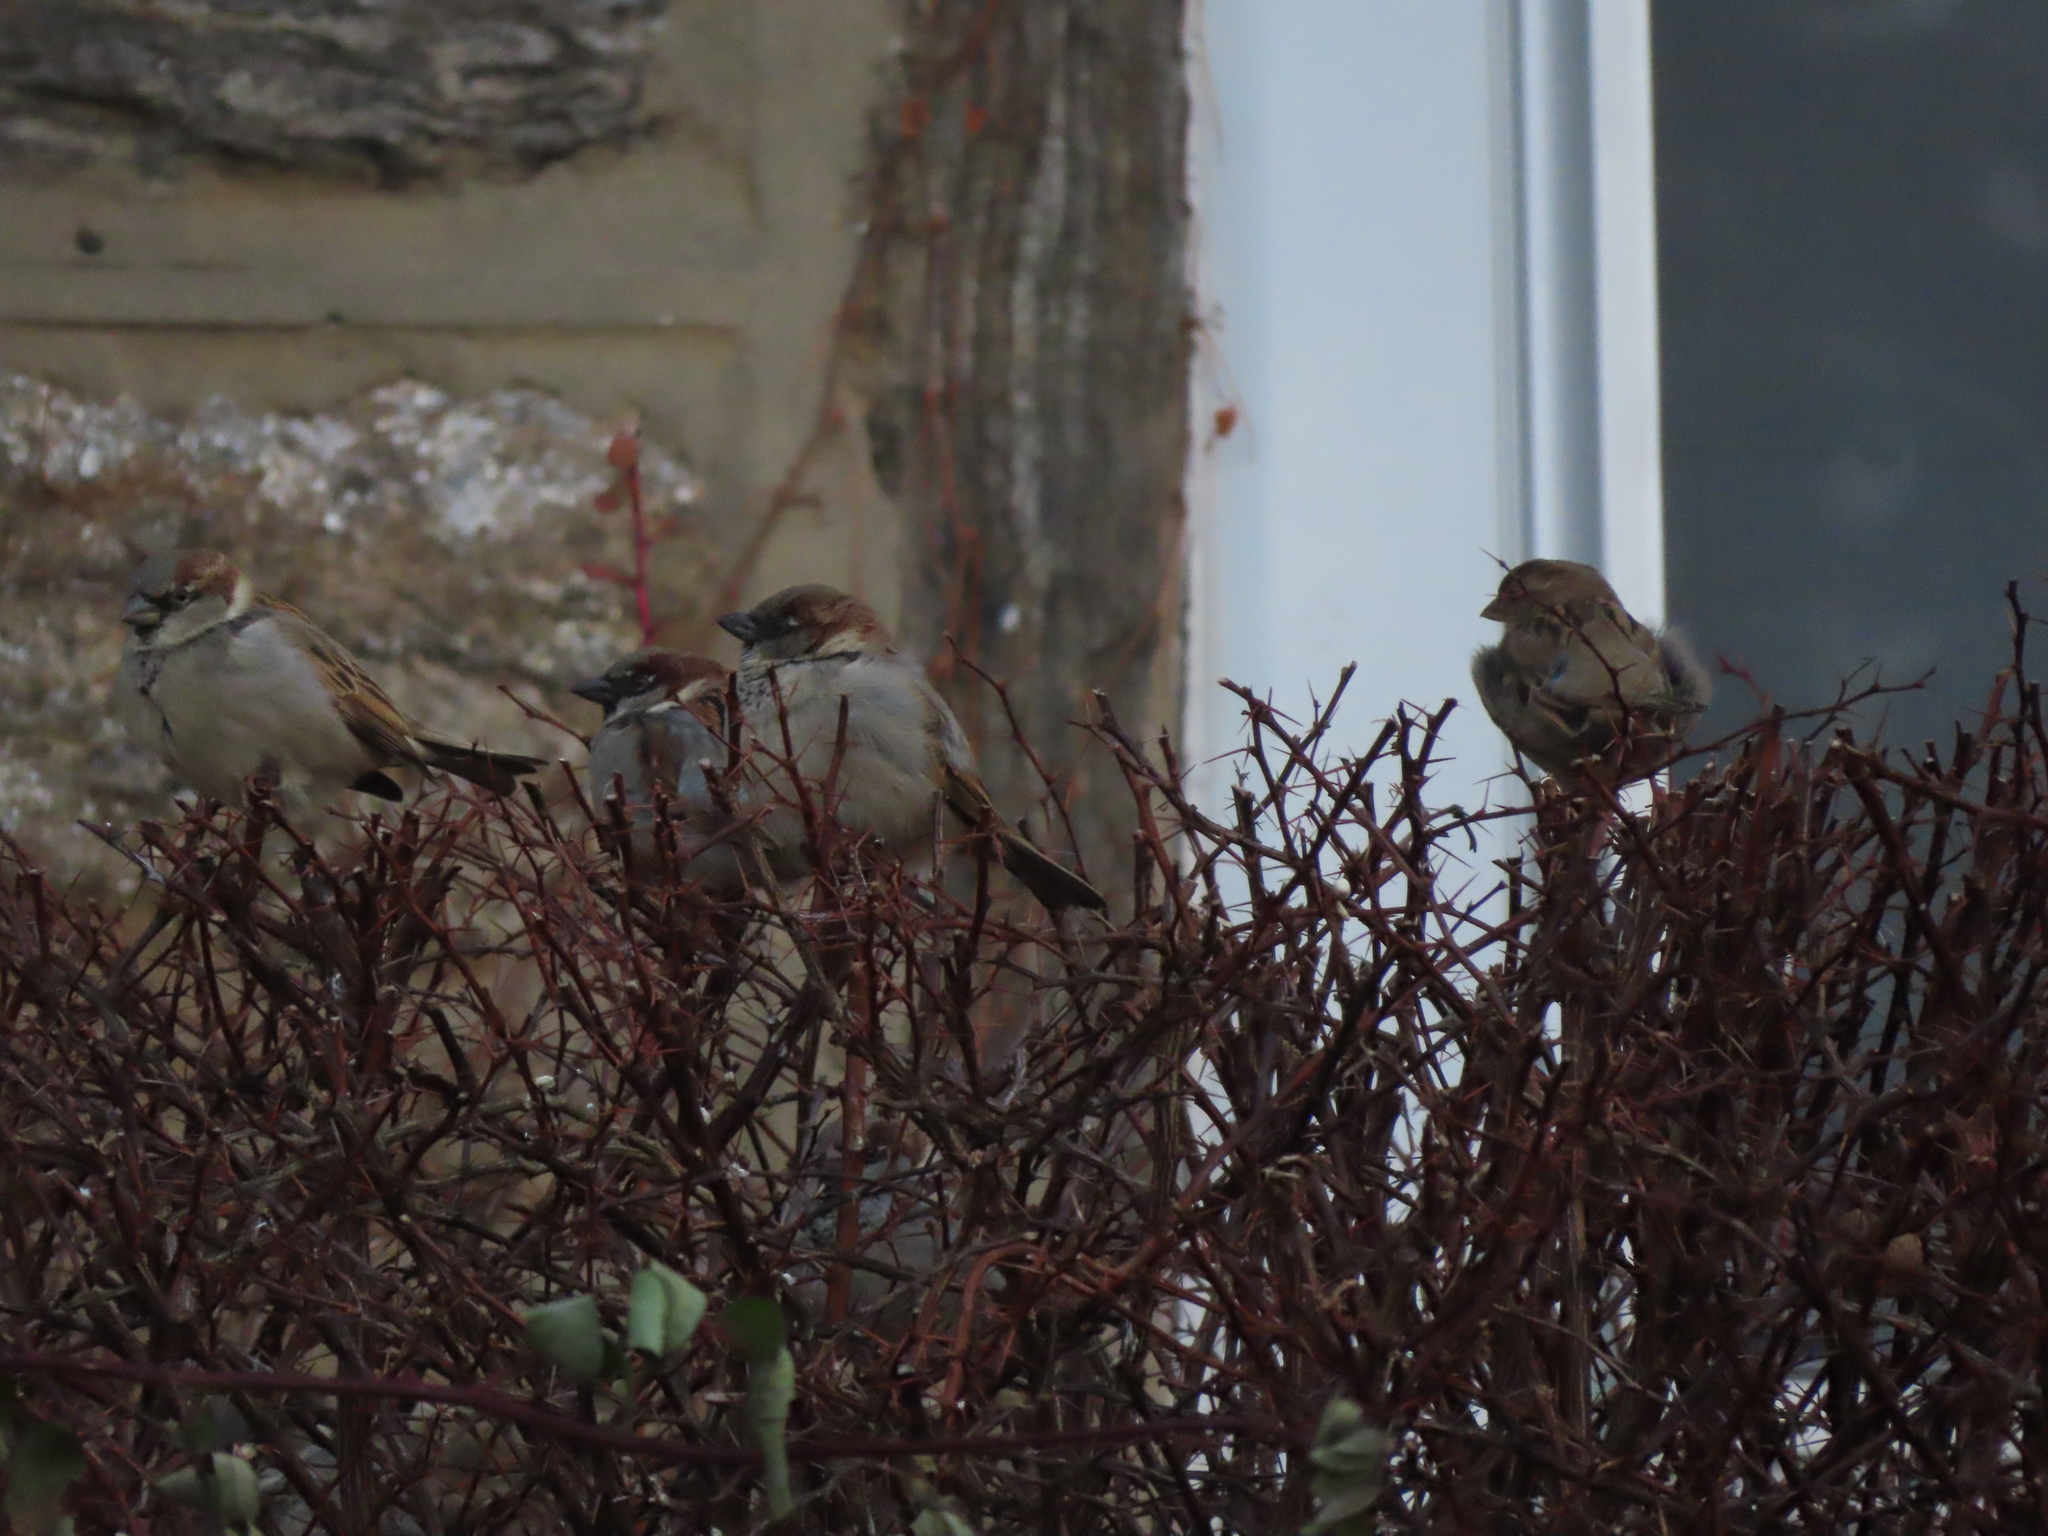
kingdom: Animalia
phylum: Chordata
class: Aves
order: Passeriformes
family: Passeridae
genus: Passer
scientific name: Passer domesticus
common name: House sparrow
